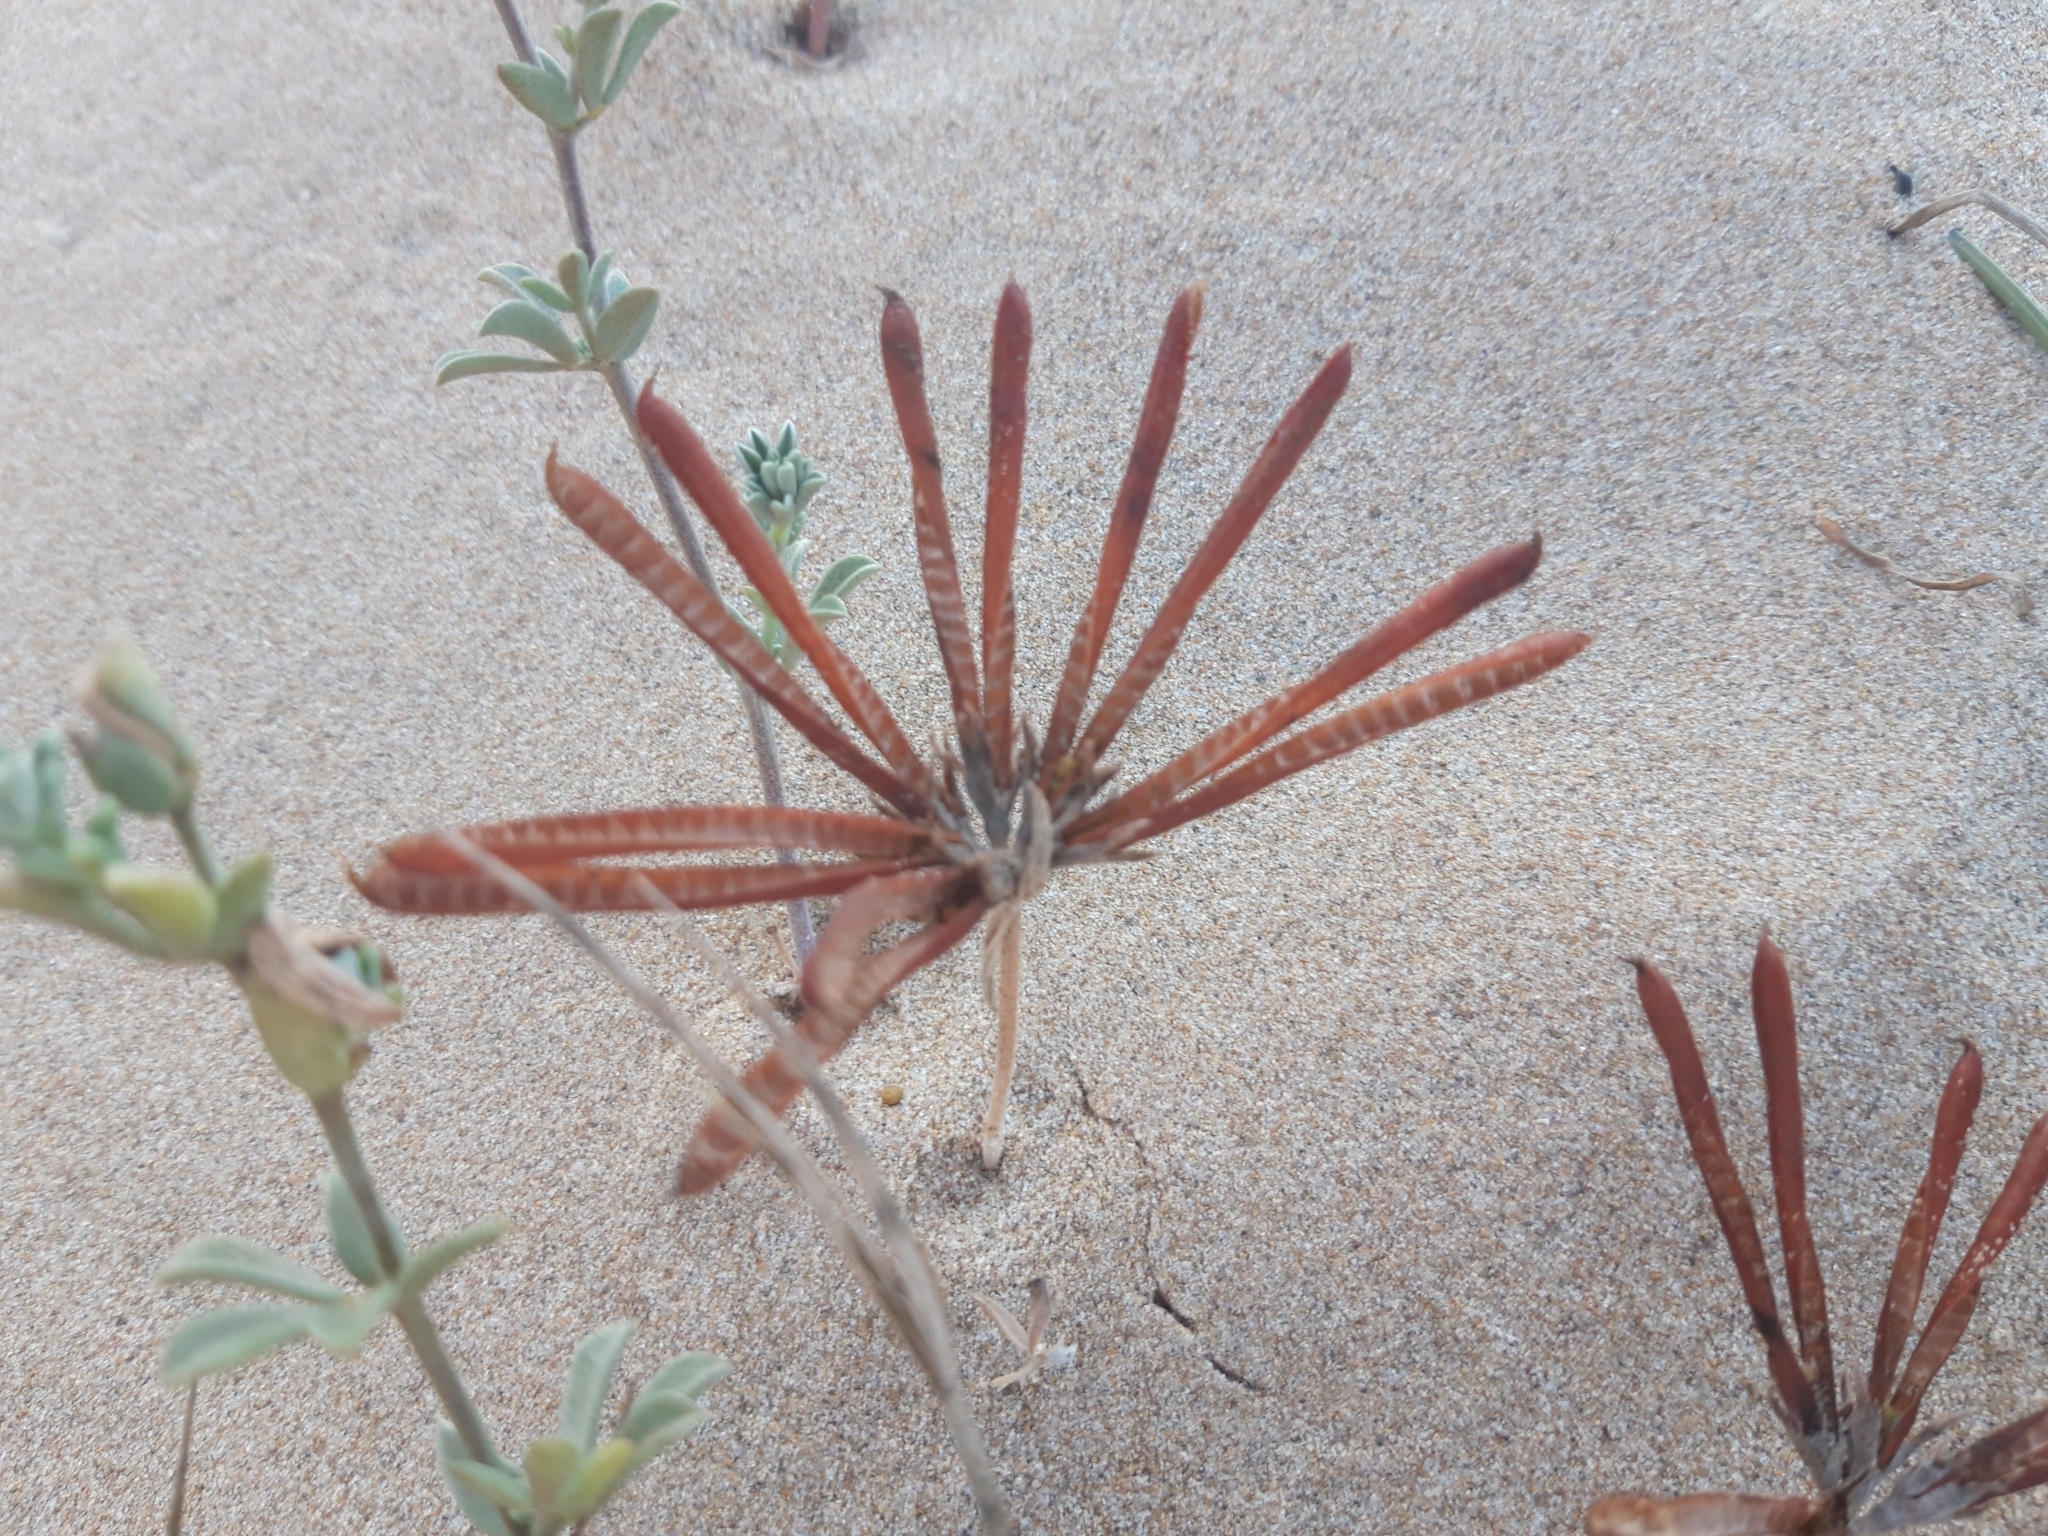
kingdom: Plantae
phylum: Tracheophyta
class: Magnoliopsida
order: Fabales
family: Fabaceae
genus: Lotus
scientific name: Lotus creticus
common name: Cretan bird's-foot trefoil
